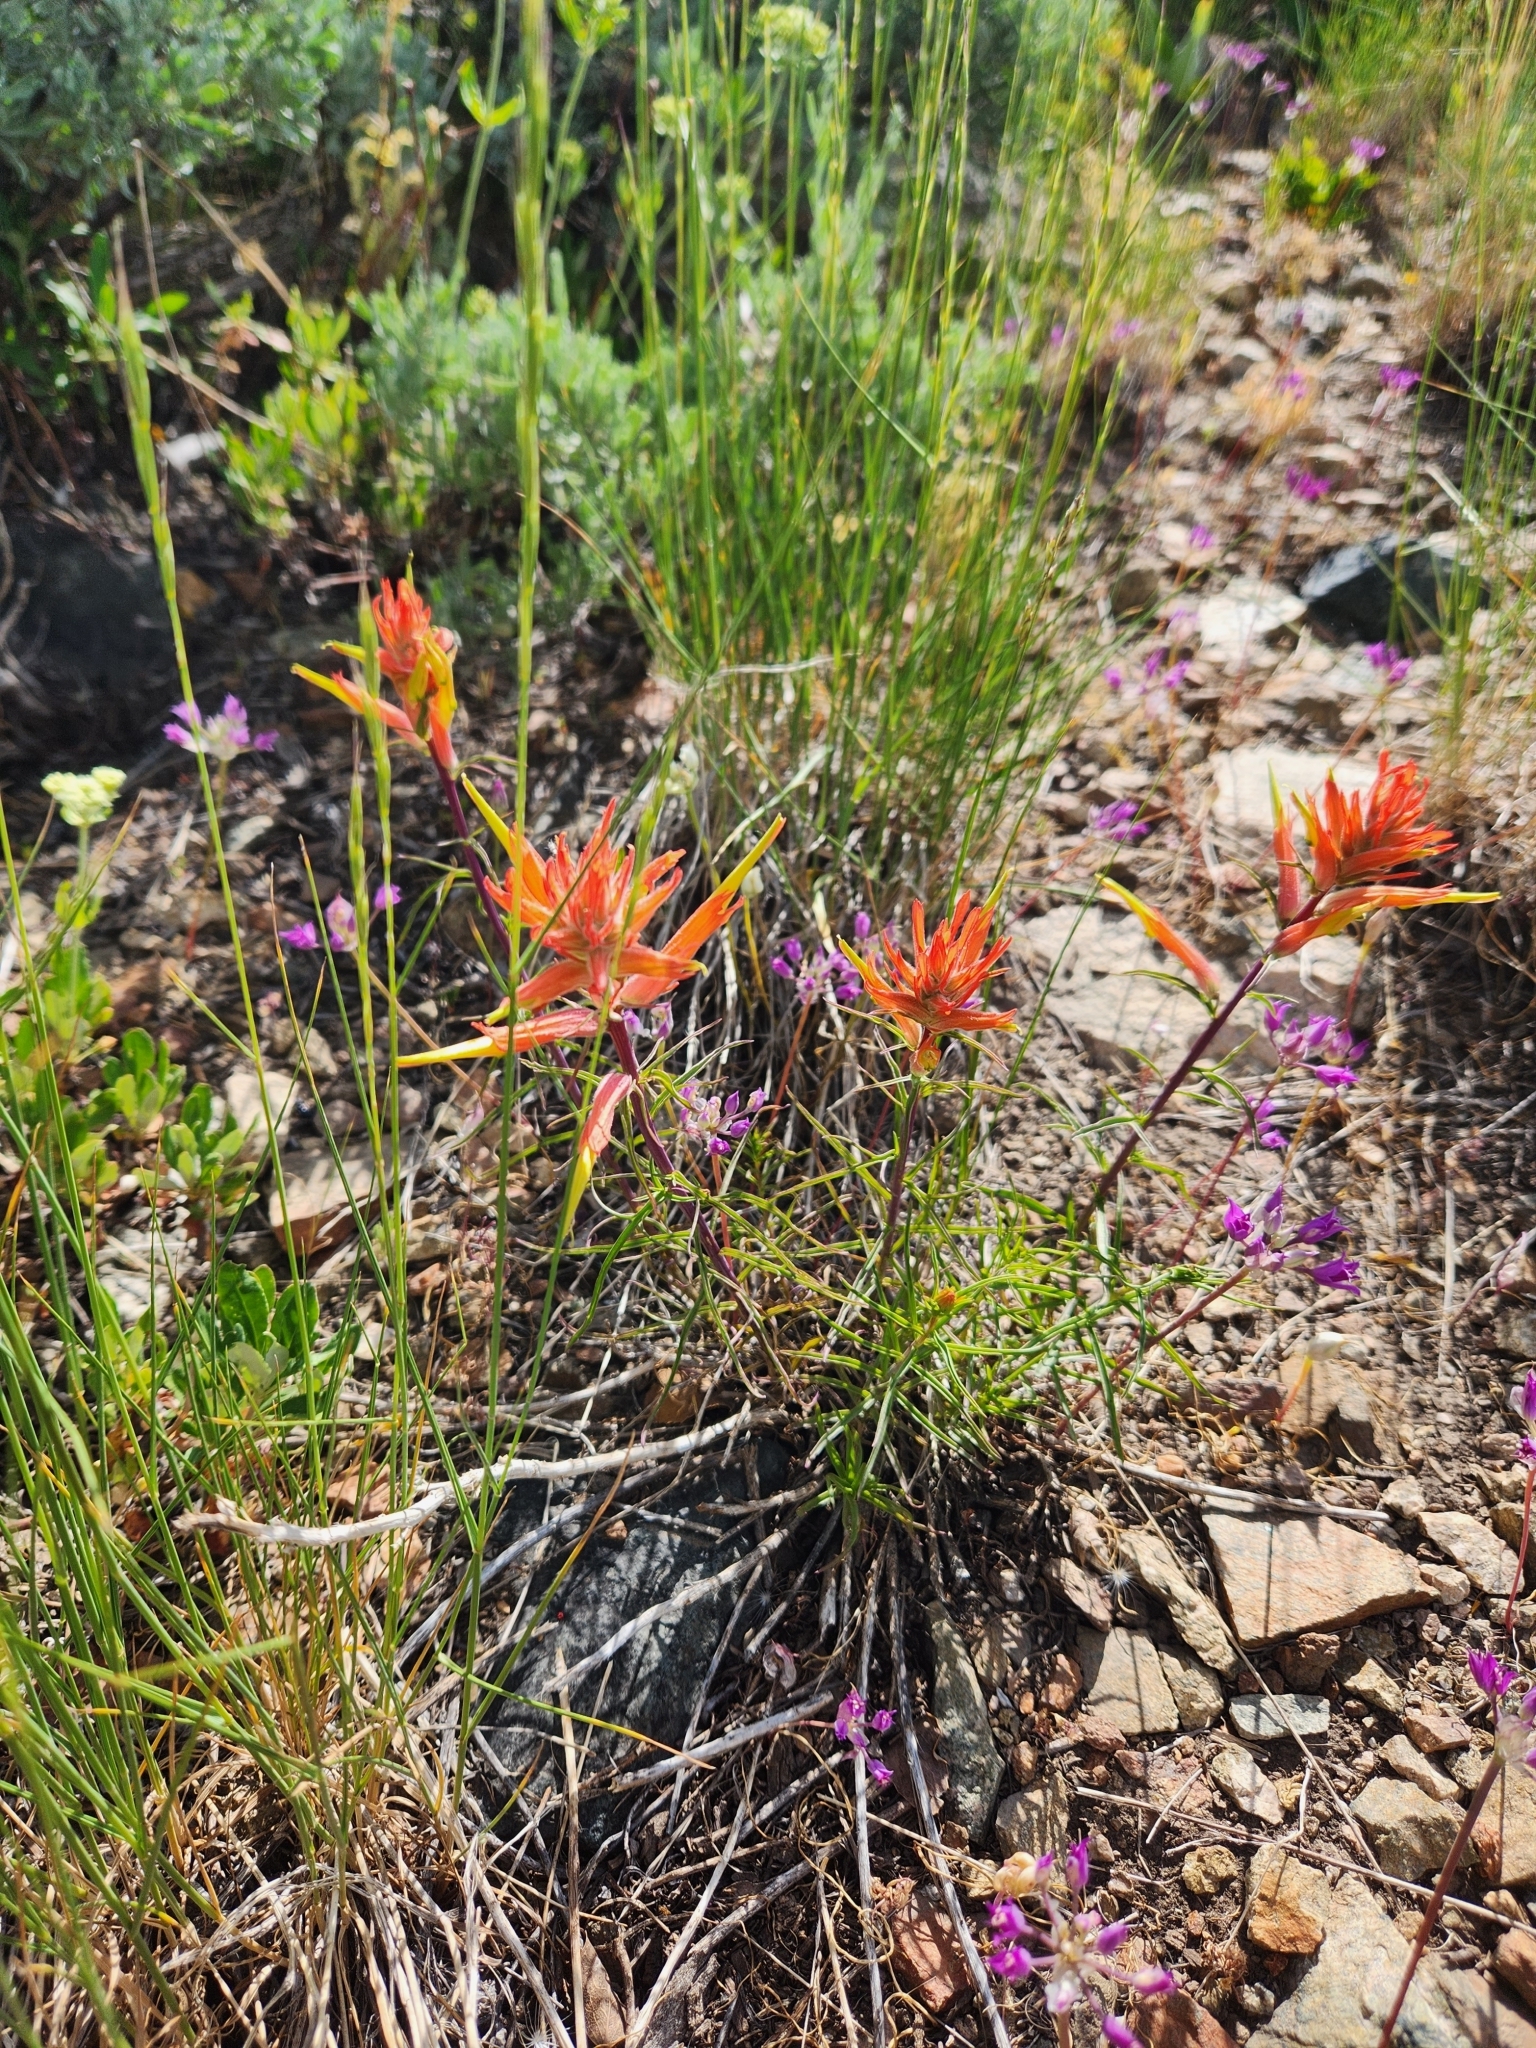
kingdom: Plantae
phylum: Tracheophyta
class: Magnoliopsida
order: Lamiales
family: Orobanchaceae
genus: Castilleja
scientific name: Castilleja linariifolia
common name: Wyoming paintbrush
